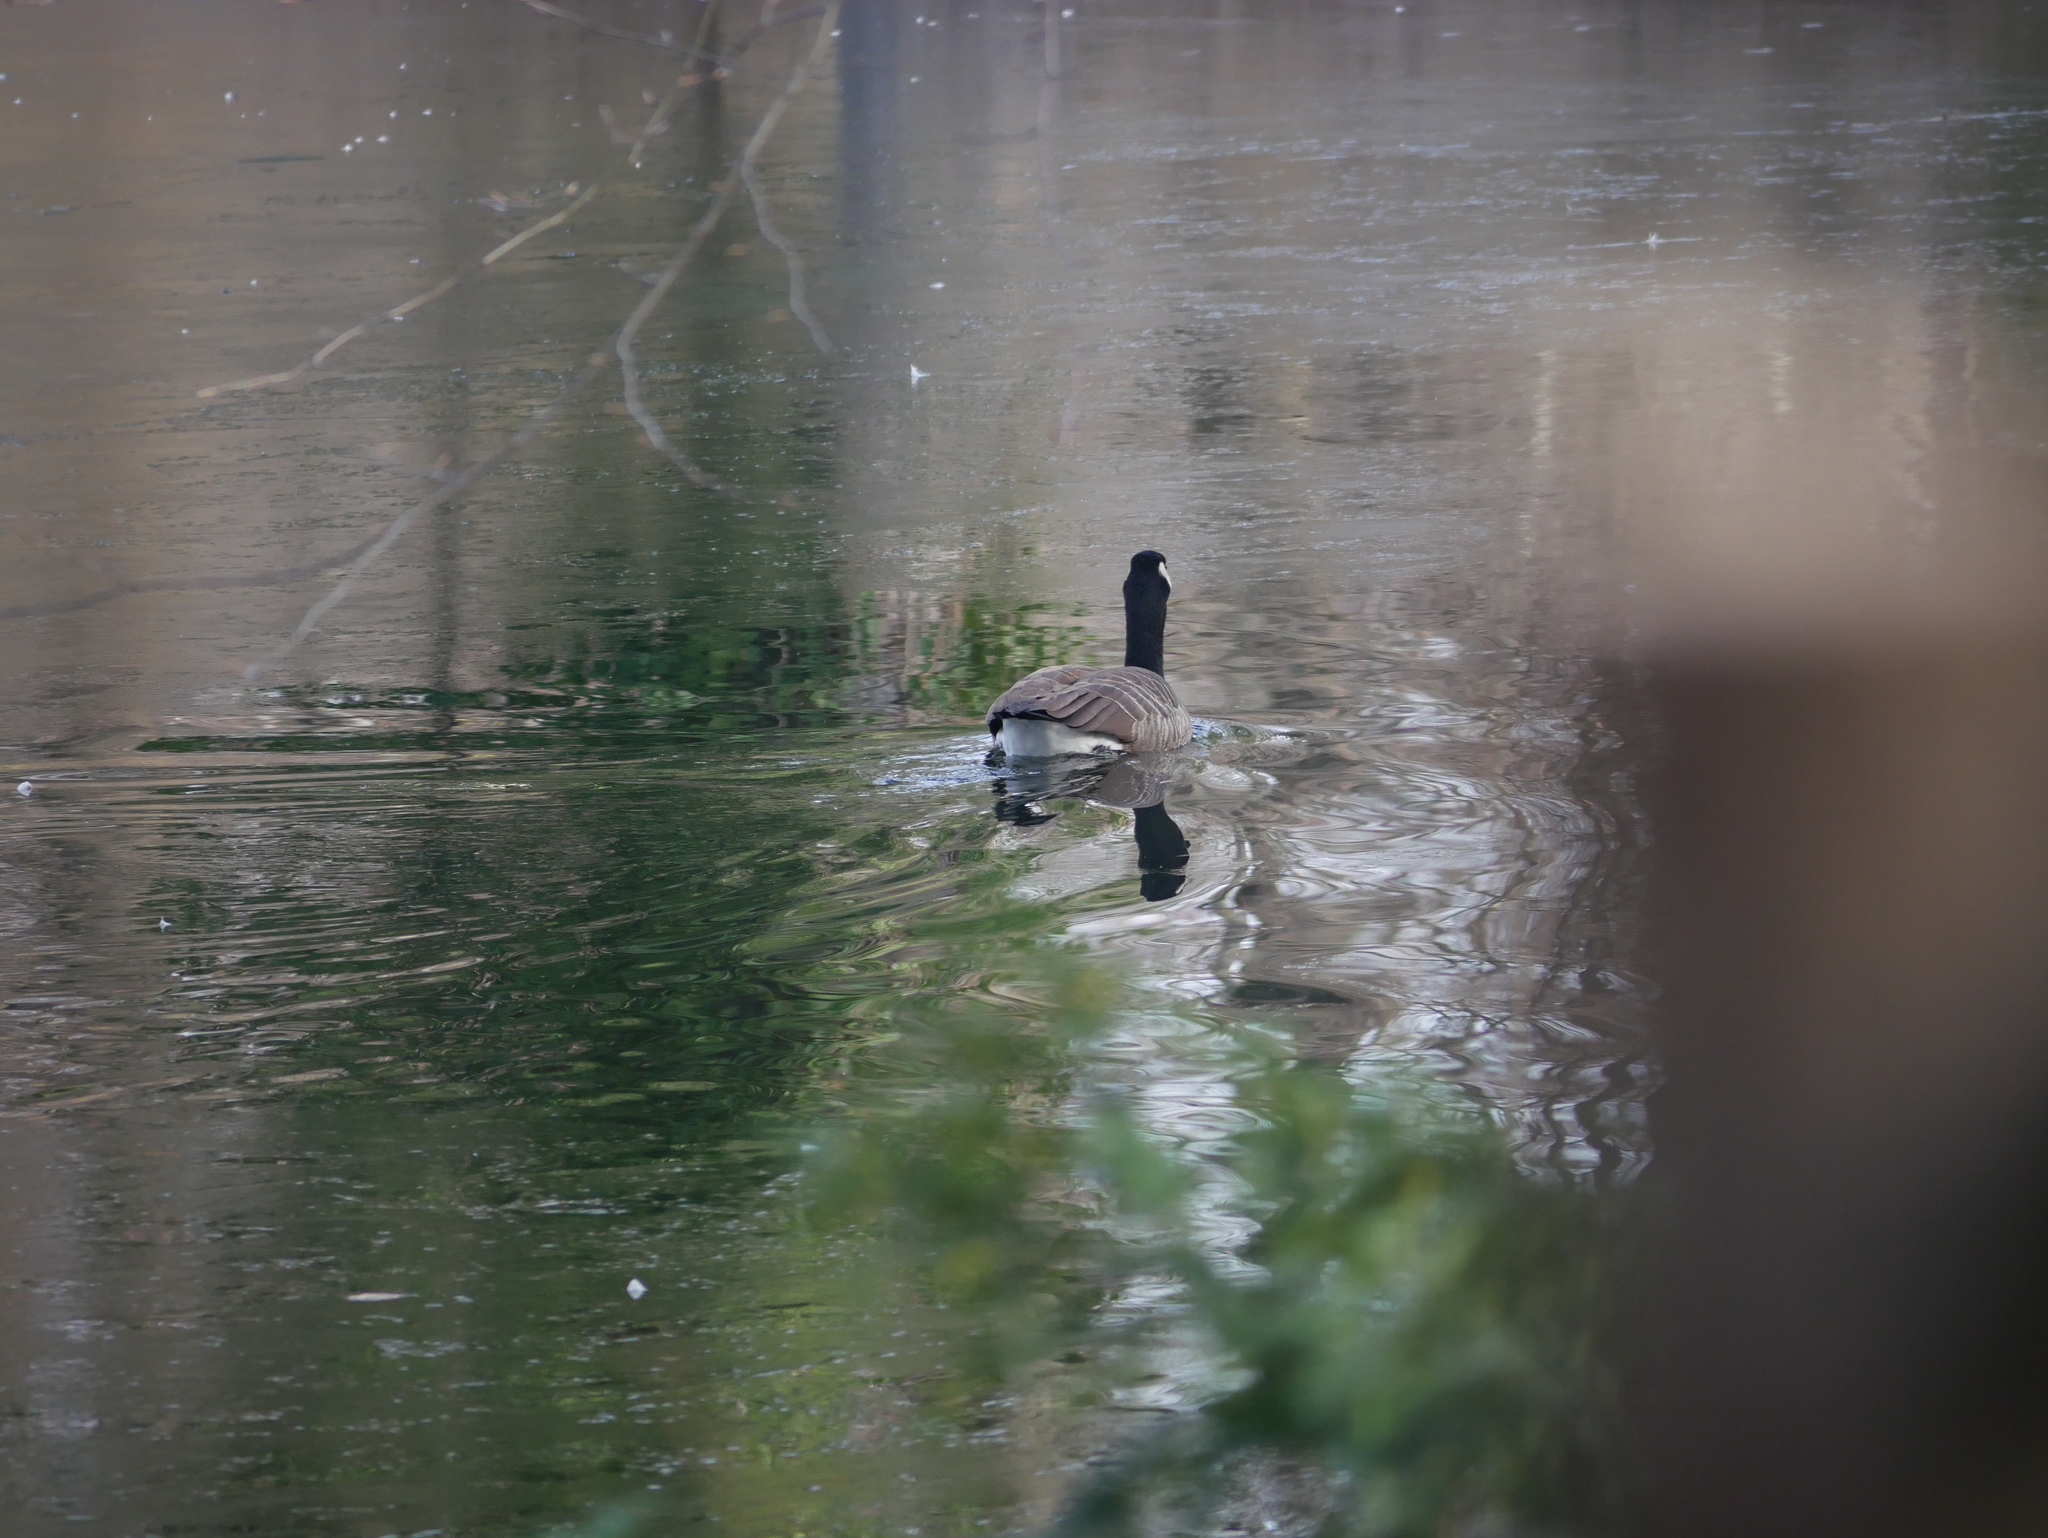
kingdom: Animalia
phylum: Chordata
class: Aves
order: Anseriformes
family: Anatidae
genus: Branta
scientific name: Branta canadensis
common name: Canada goose
